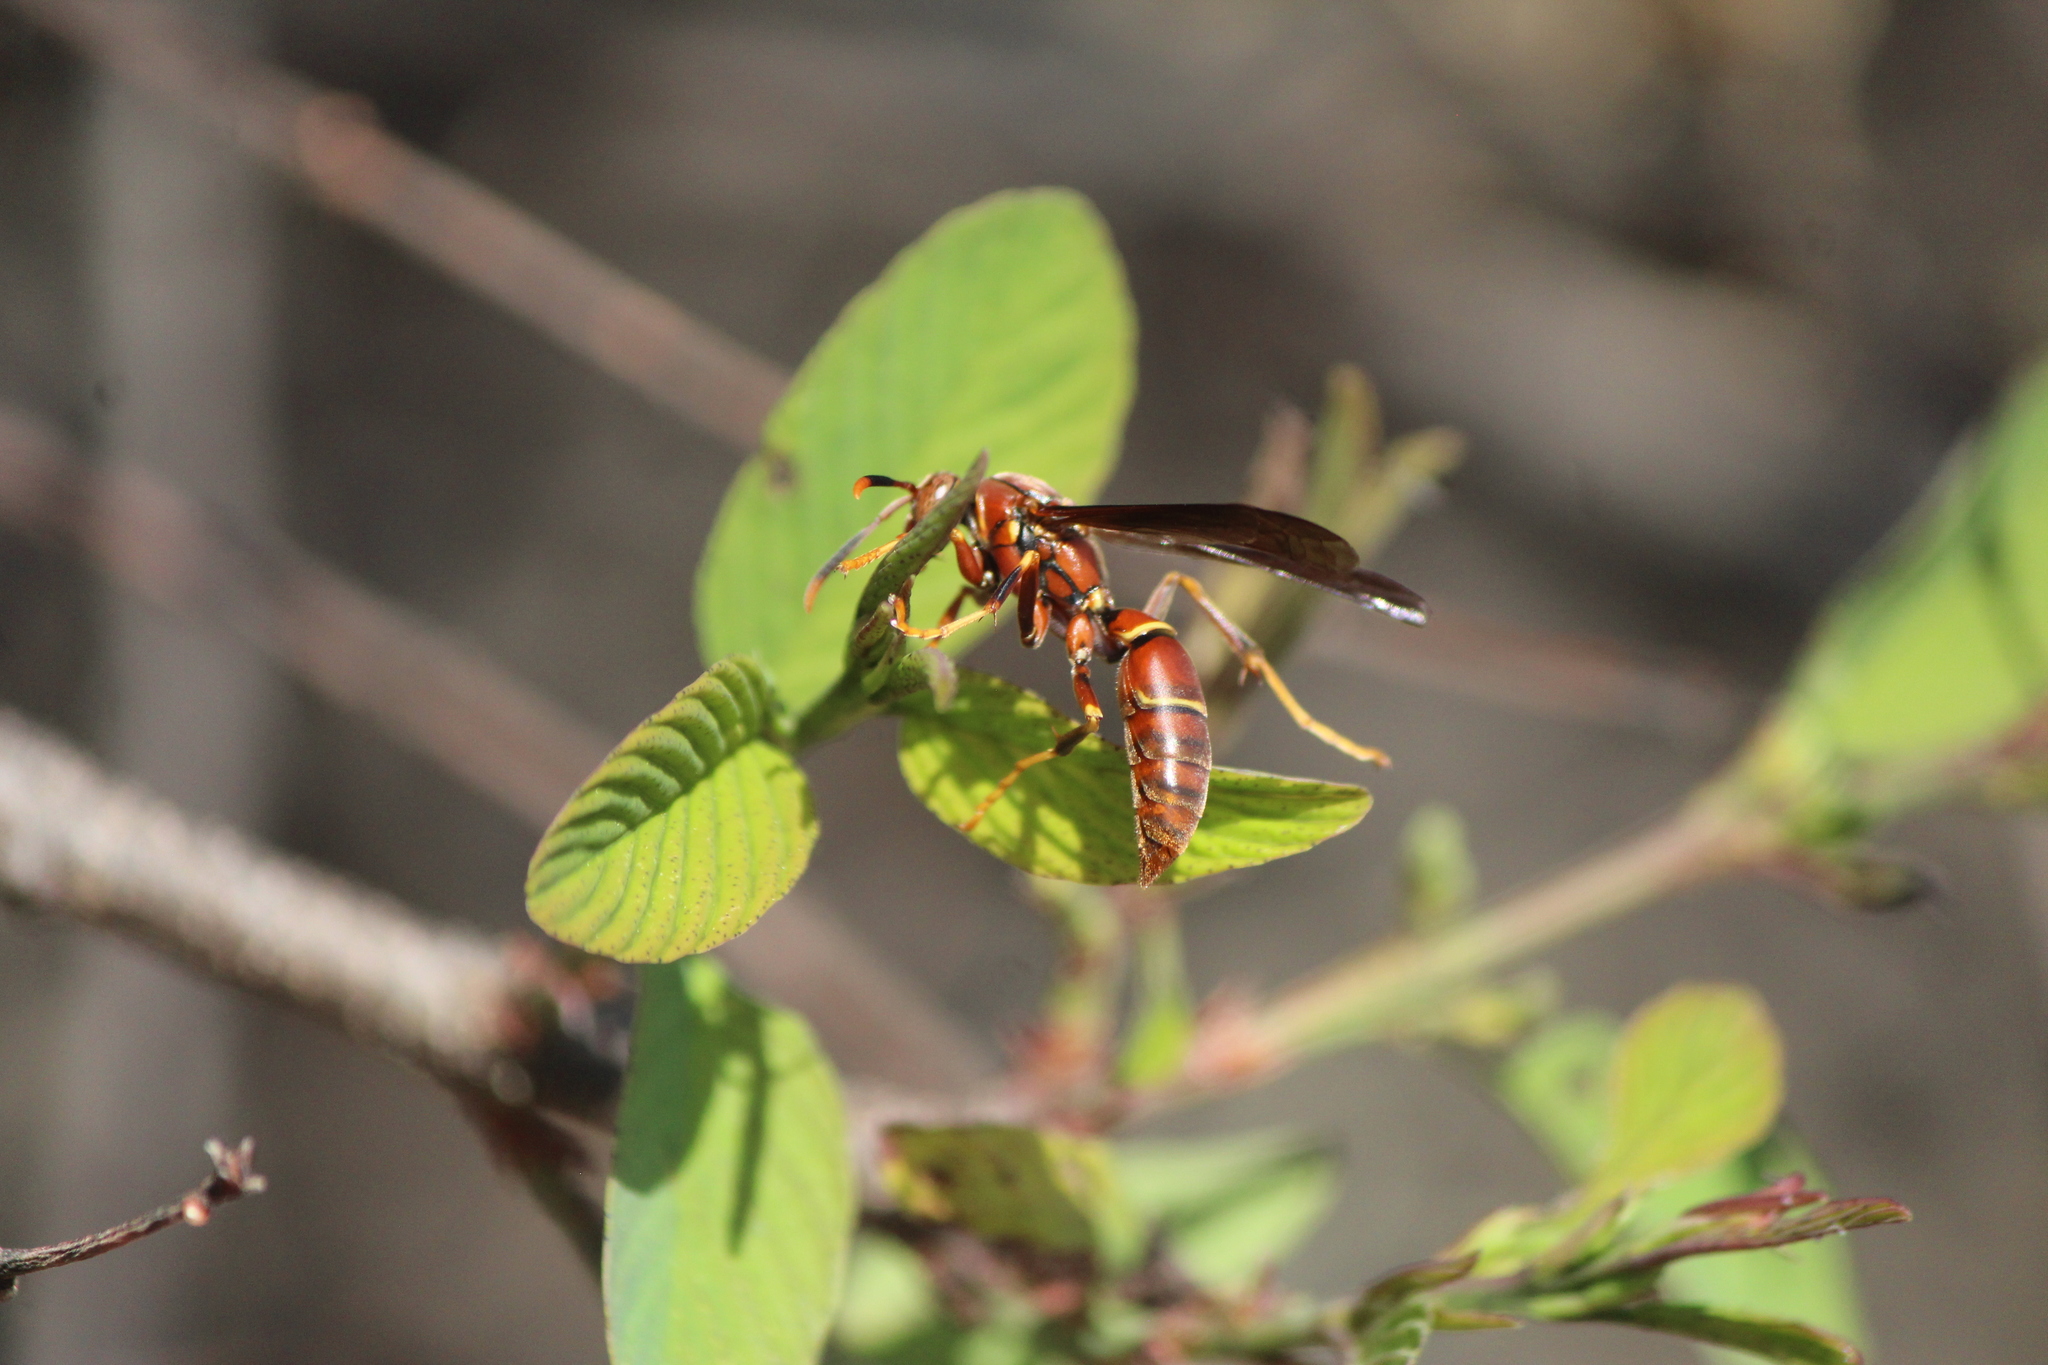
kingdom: Animalia
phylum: Arthropoda
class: Insecta
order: Hymenoptera
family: Eumenidae
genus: Polistes
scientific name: Polistes oculatus
